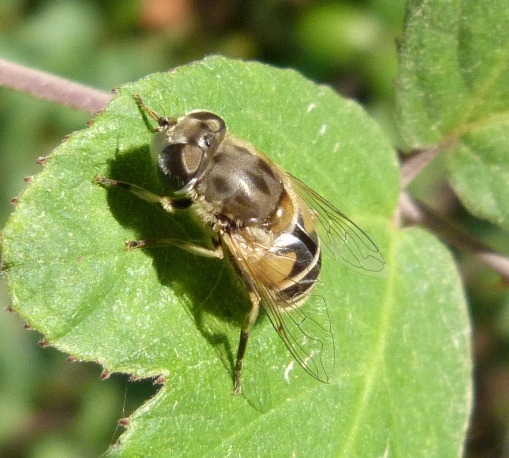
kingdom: Animalia
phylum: Arthropoda
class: Insecta
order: Diptera
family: Syrphidae
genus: Eristalis
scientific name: Eristalis arbustorum
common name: Hover fly
